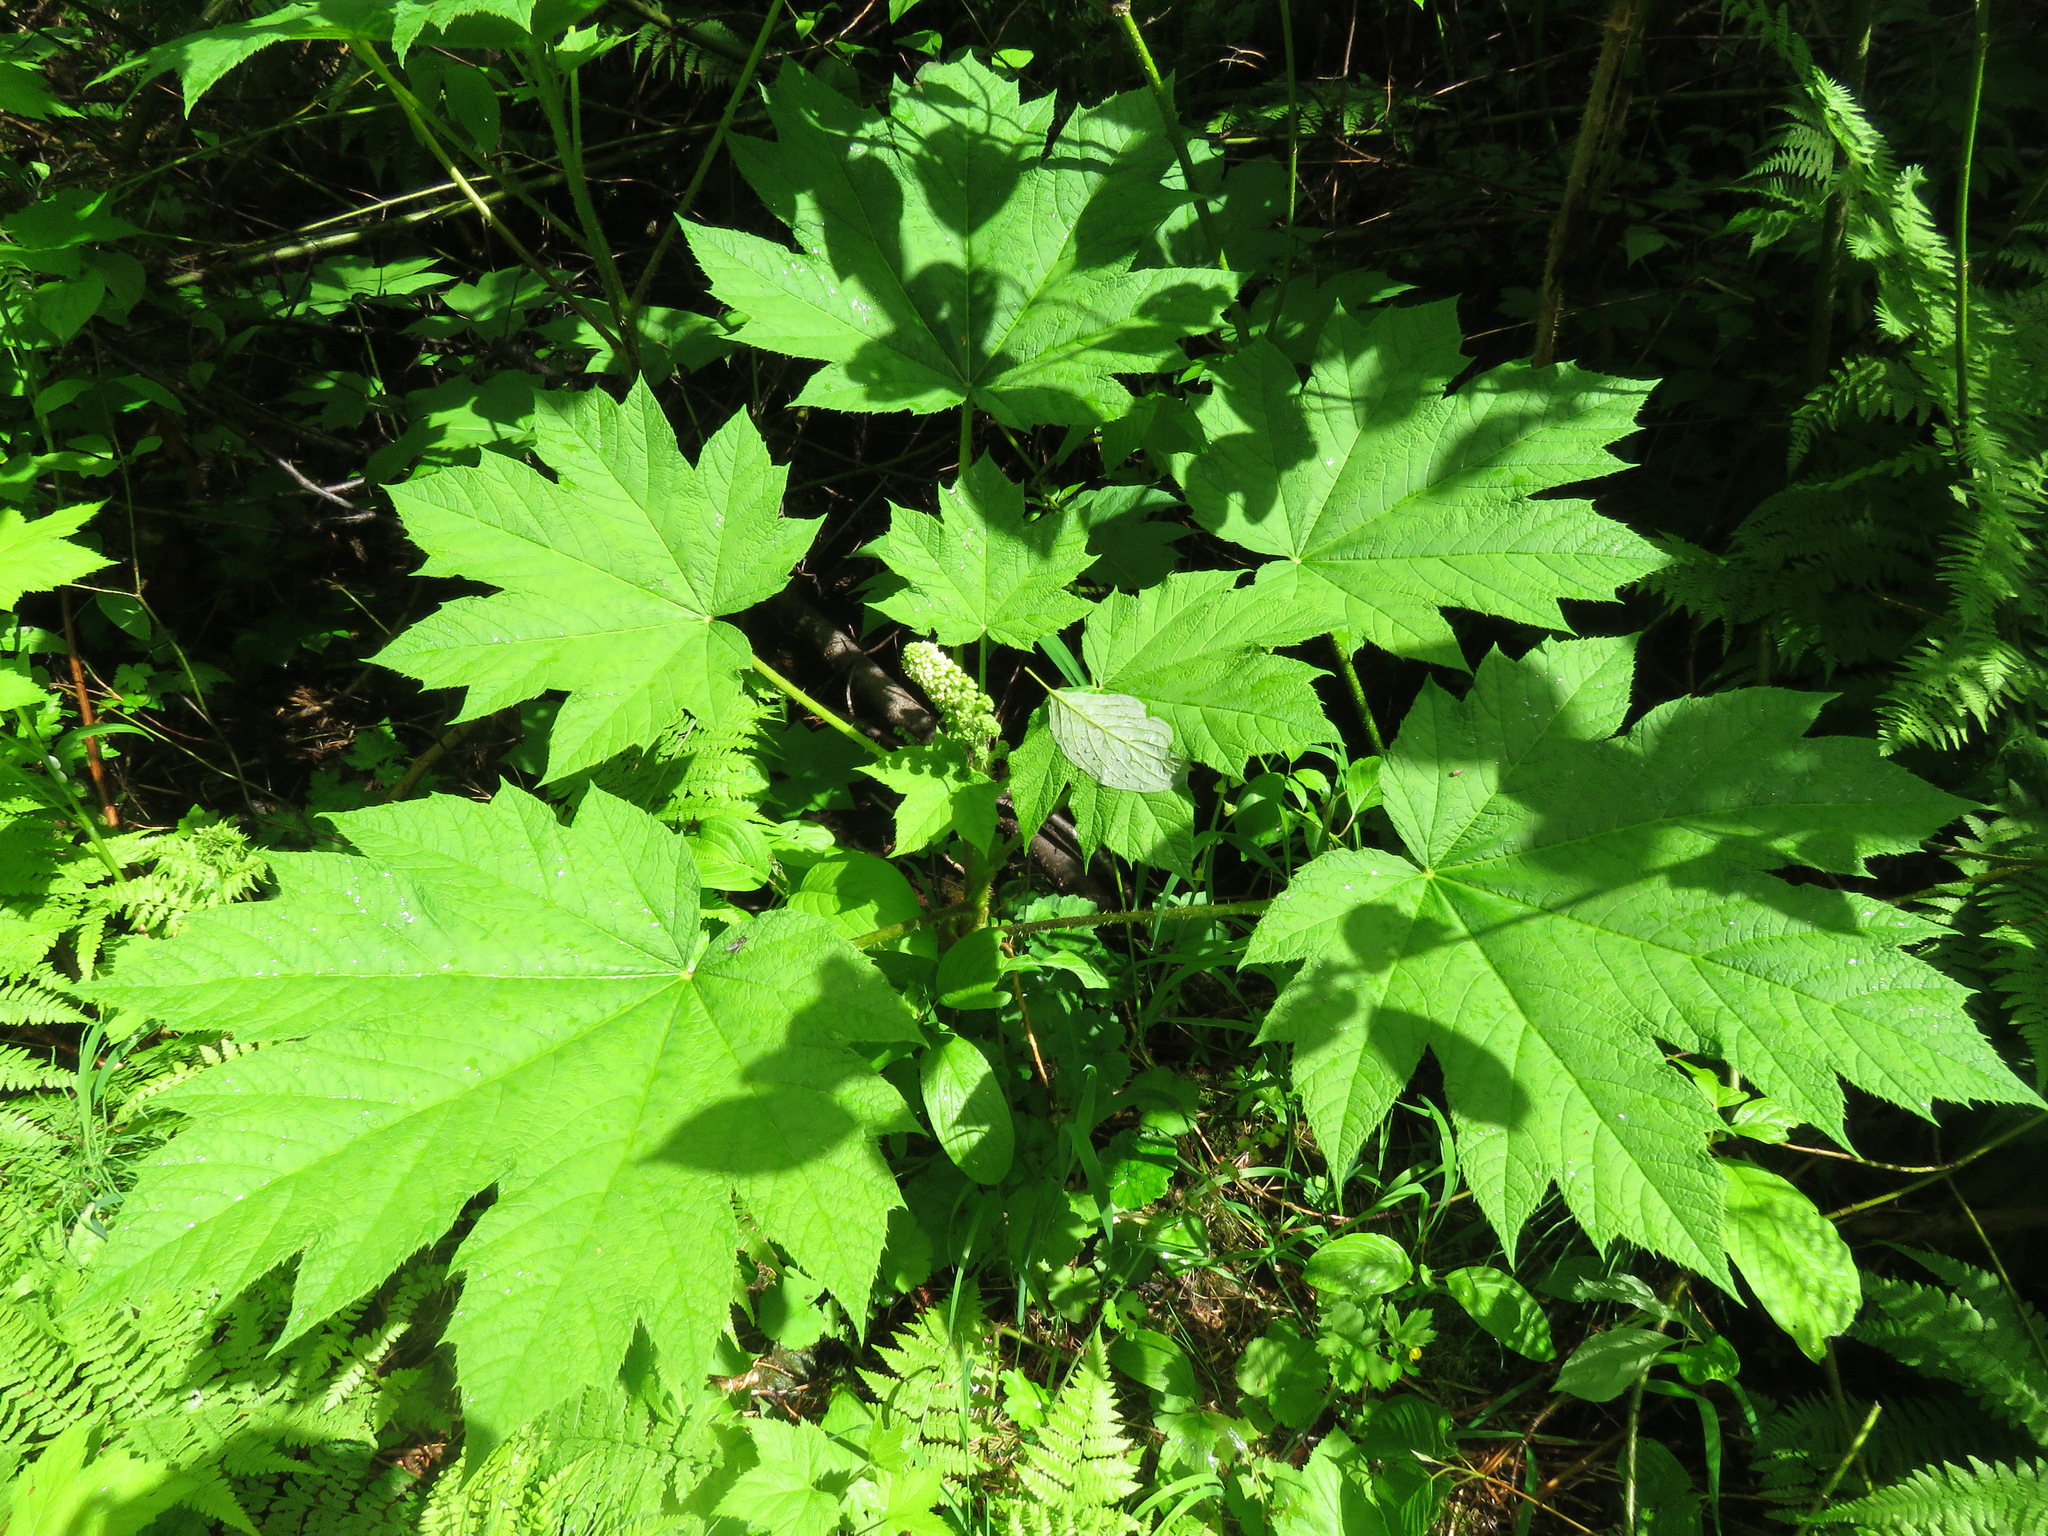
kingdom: Plantae
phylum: Tracheophyta
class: Magnoliopsida
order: Apiales
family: Araliaceae
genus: Oplopanax
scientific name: Oplopanax horridus
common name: Devil's walking-stick
